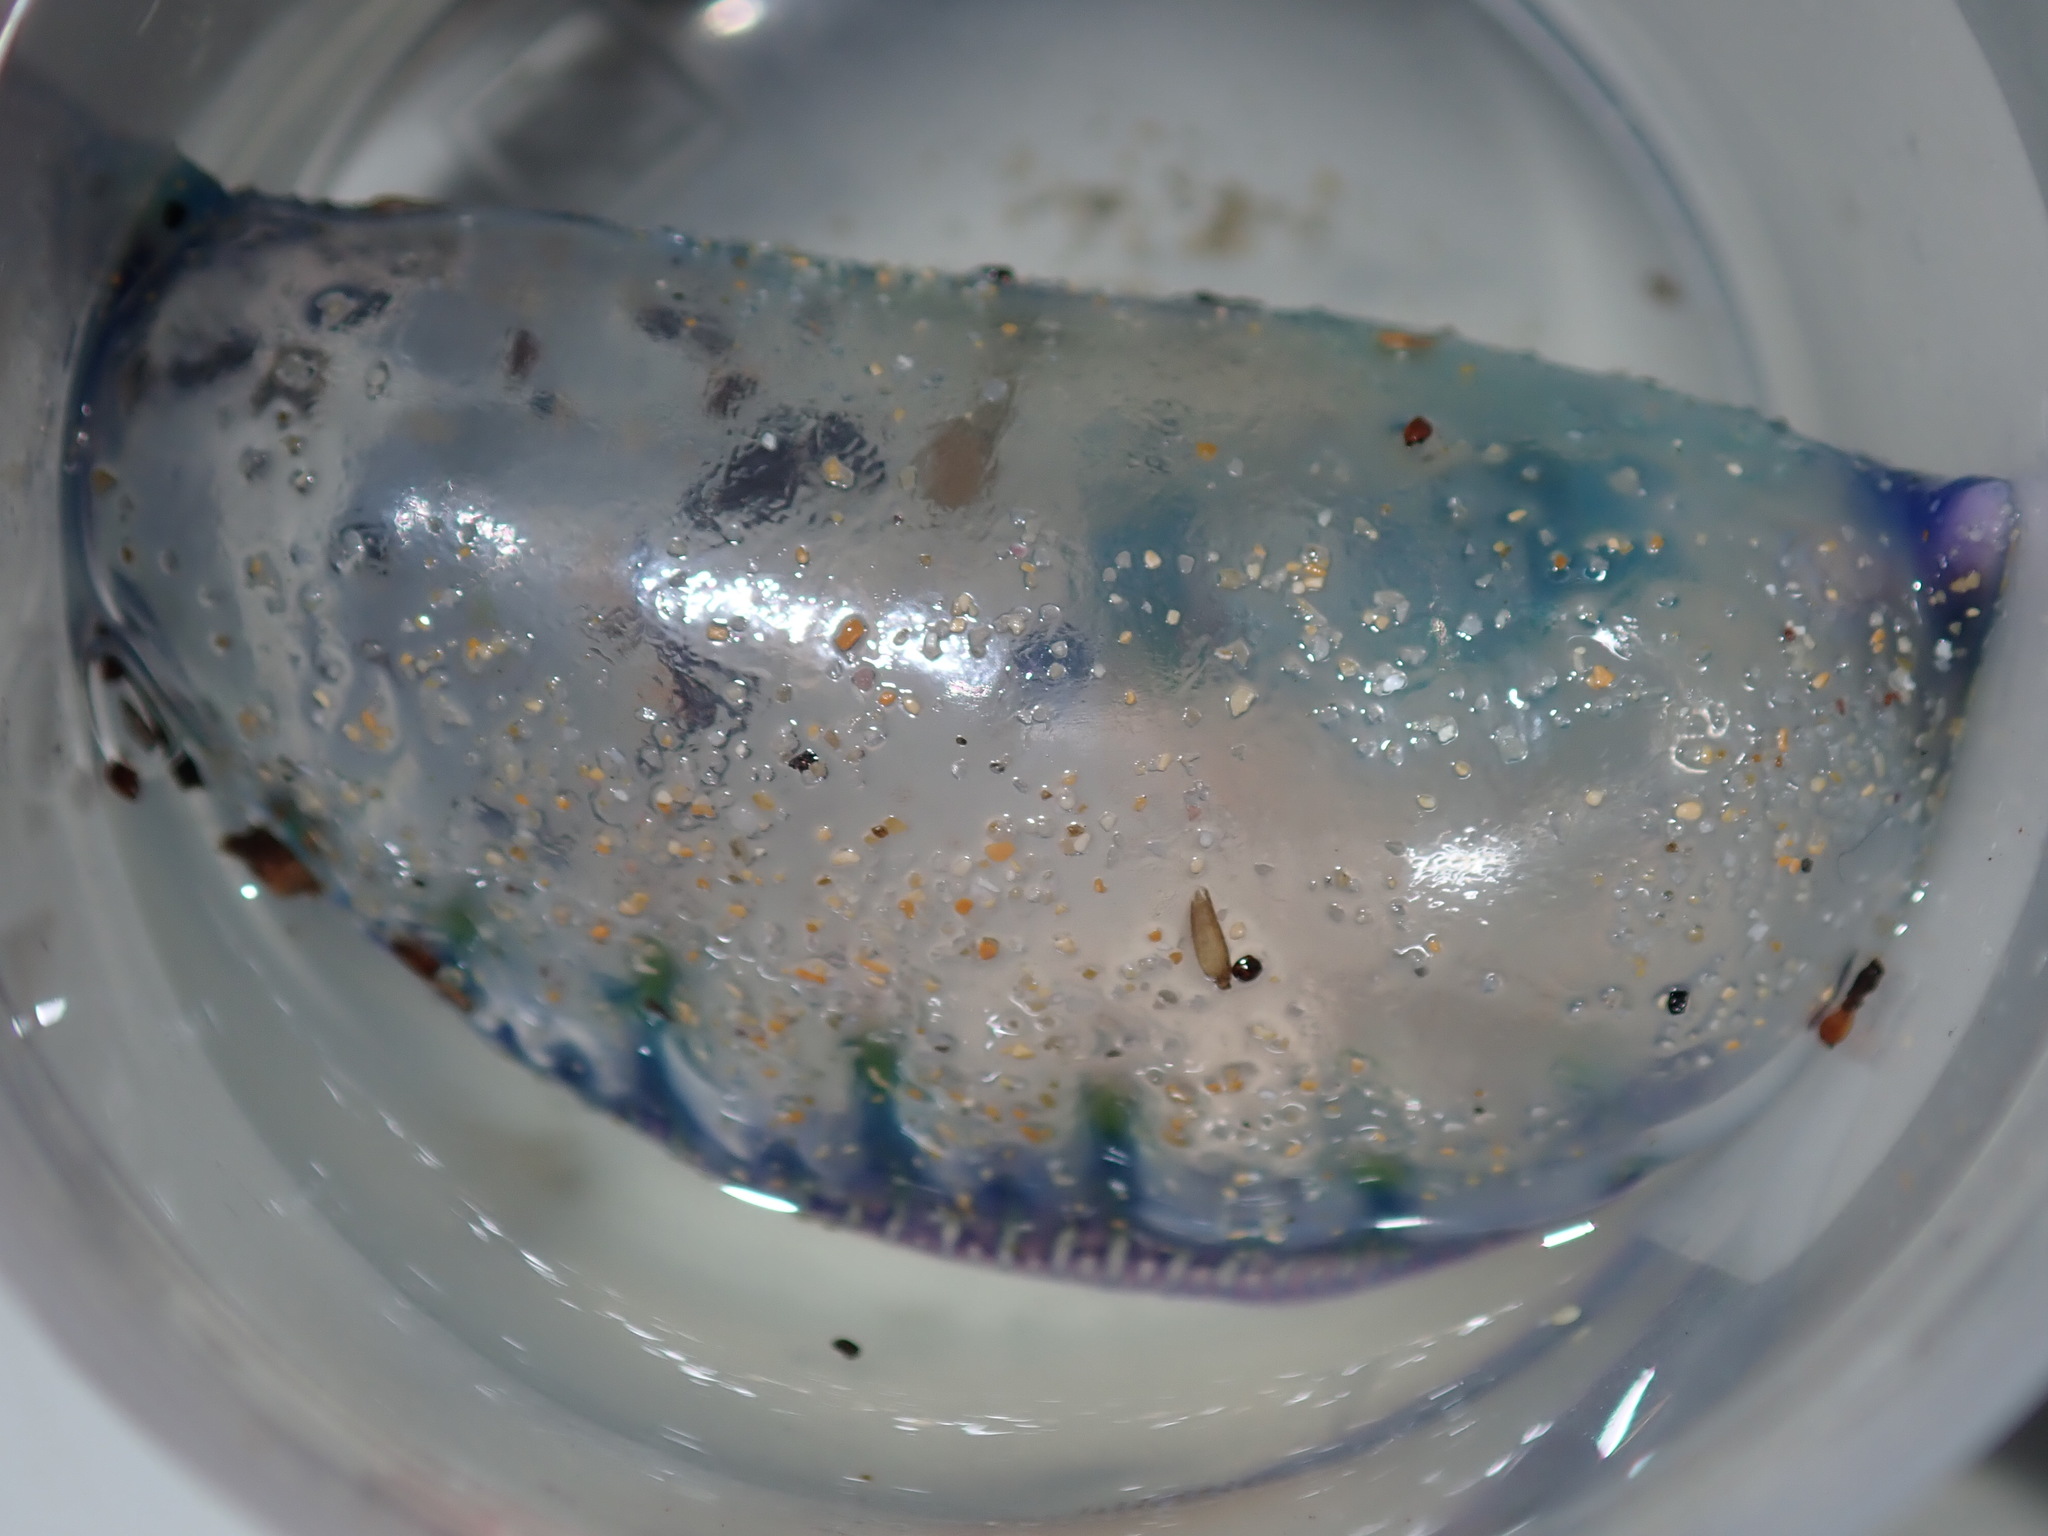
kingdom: Animalia
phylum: Cnidaria
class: Hydrozoa
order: Siphonophorae
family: Physaliidae
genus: Physalia
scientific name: Physalia physalis
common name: Portuguese man-of-war
